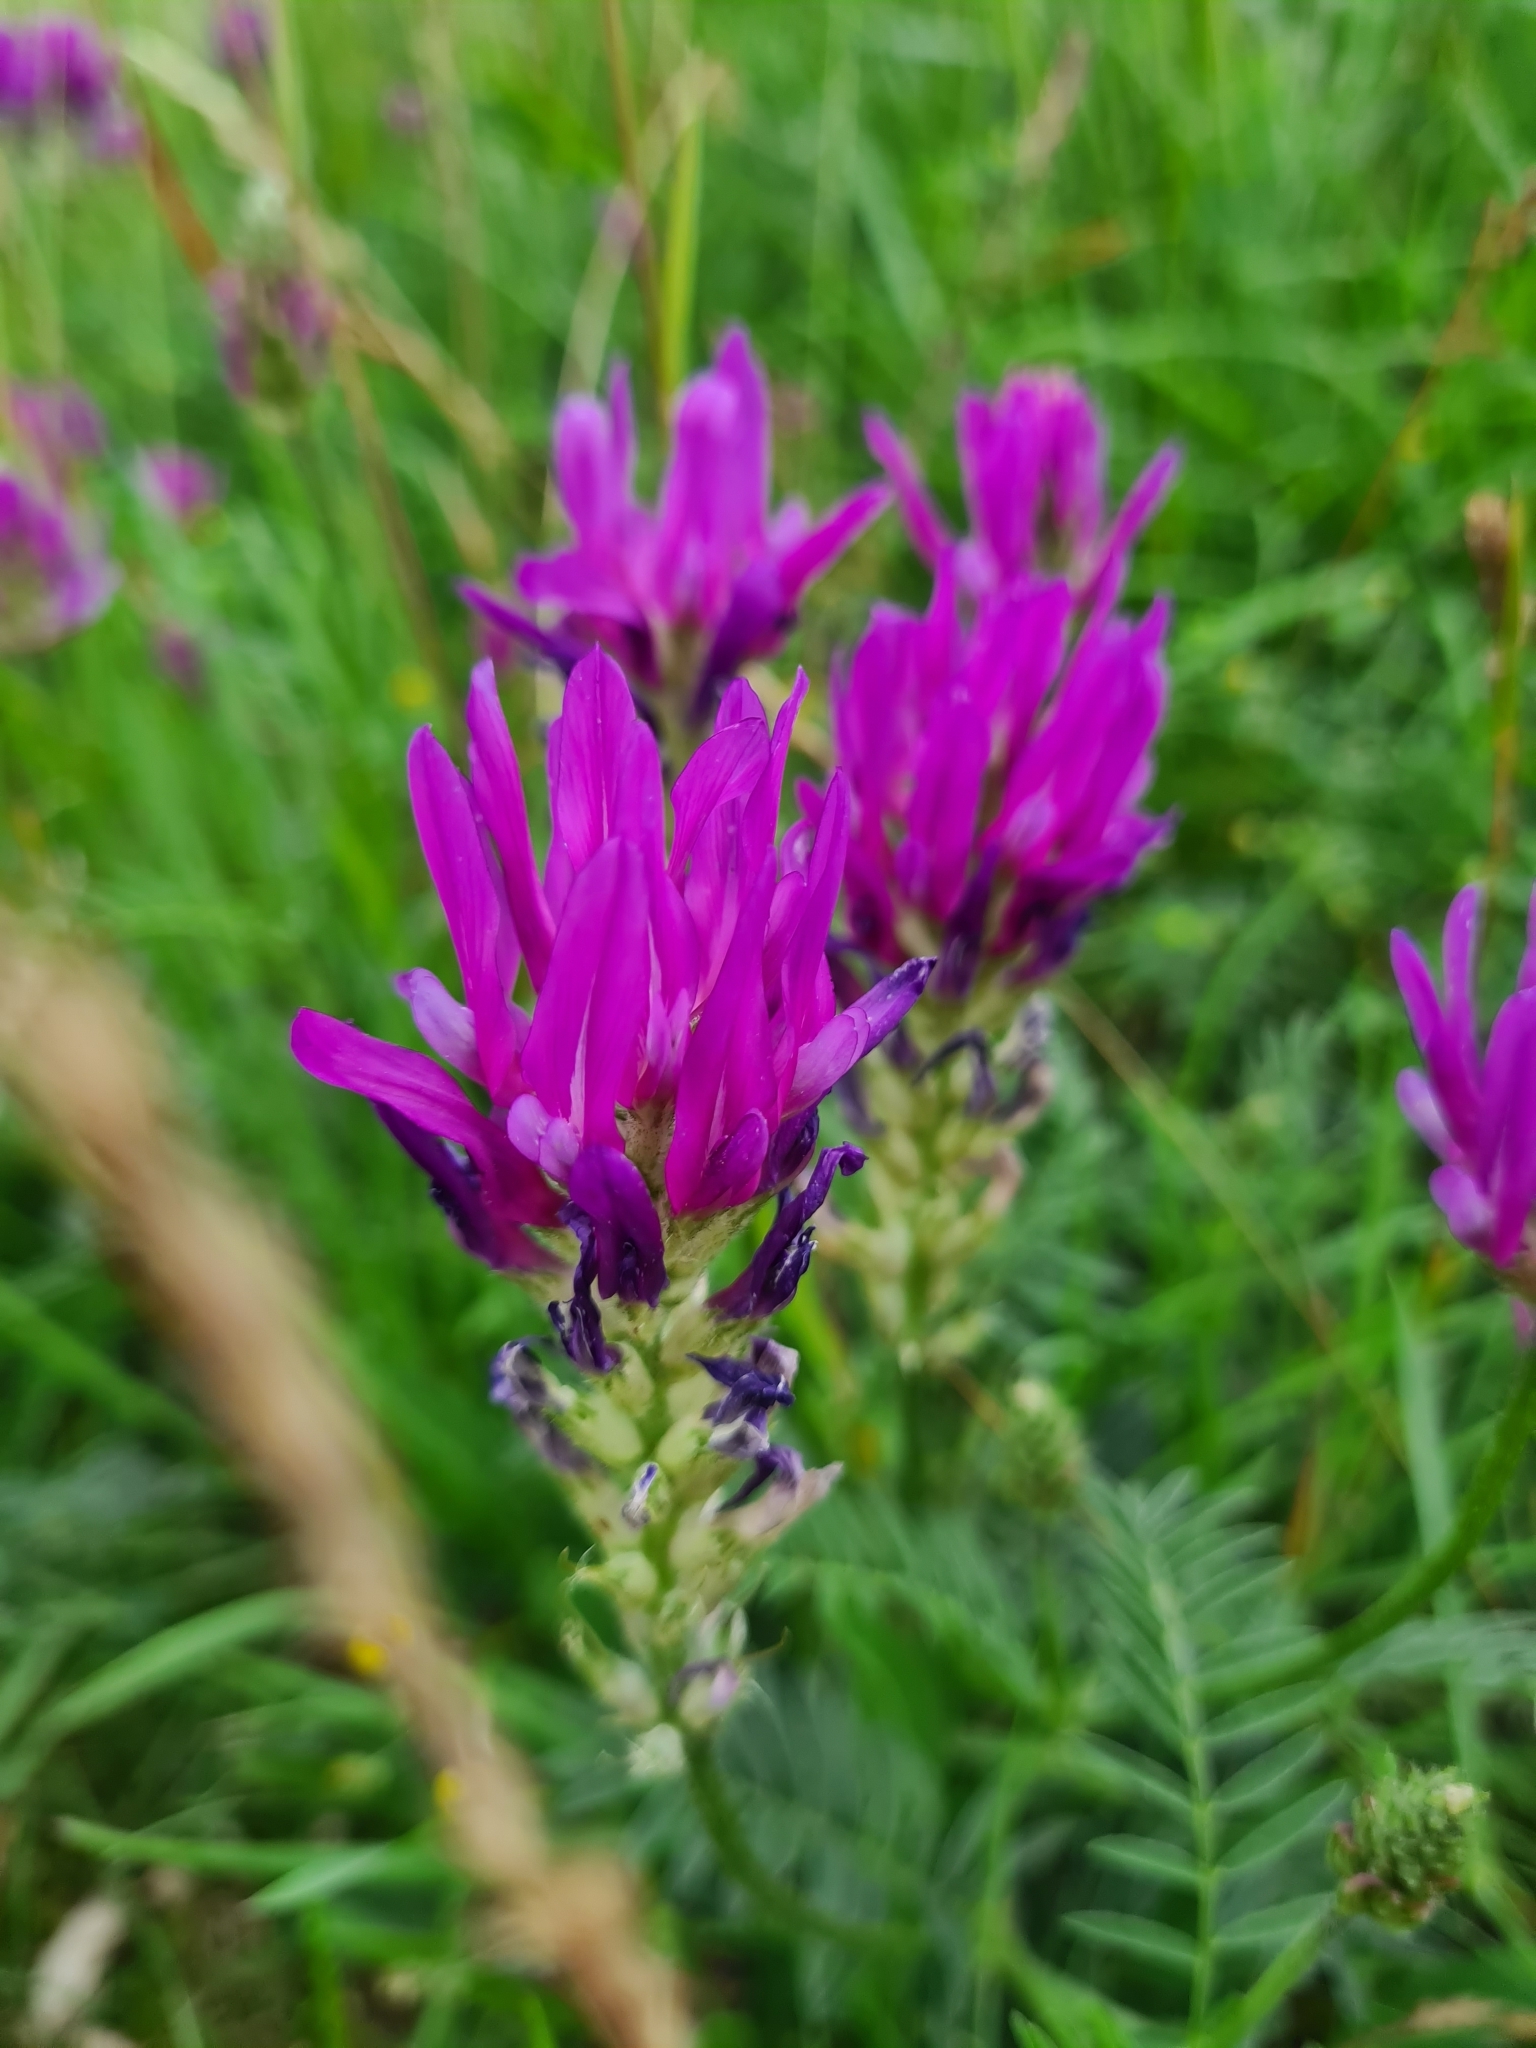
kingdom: Plantae
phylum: Tracheophyta
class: Magnoliopsida
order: Fabales
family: Fabaceae
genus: Astragalus
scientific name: Astragalus onobrychis
